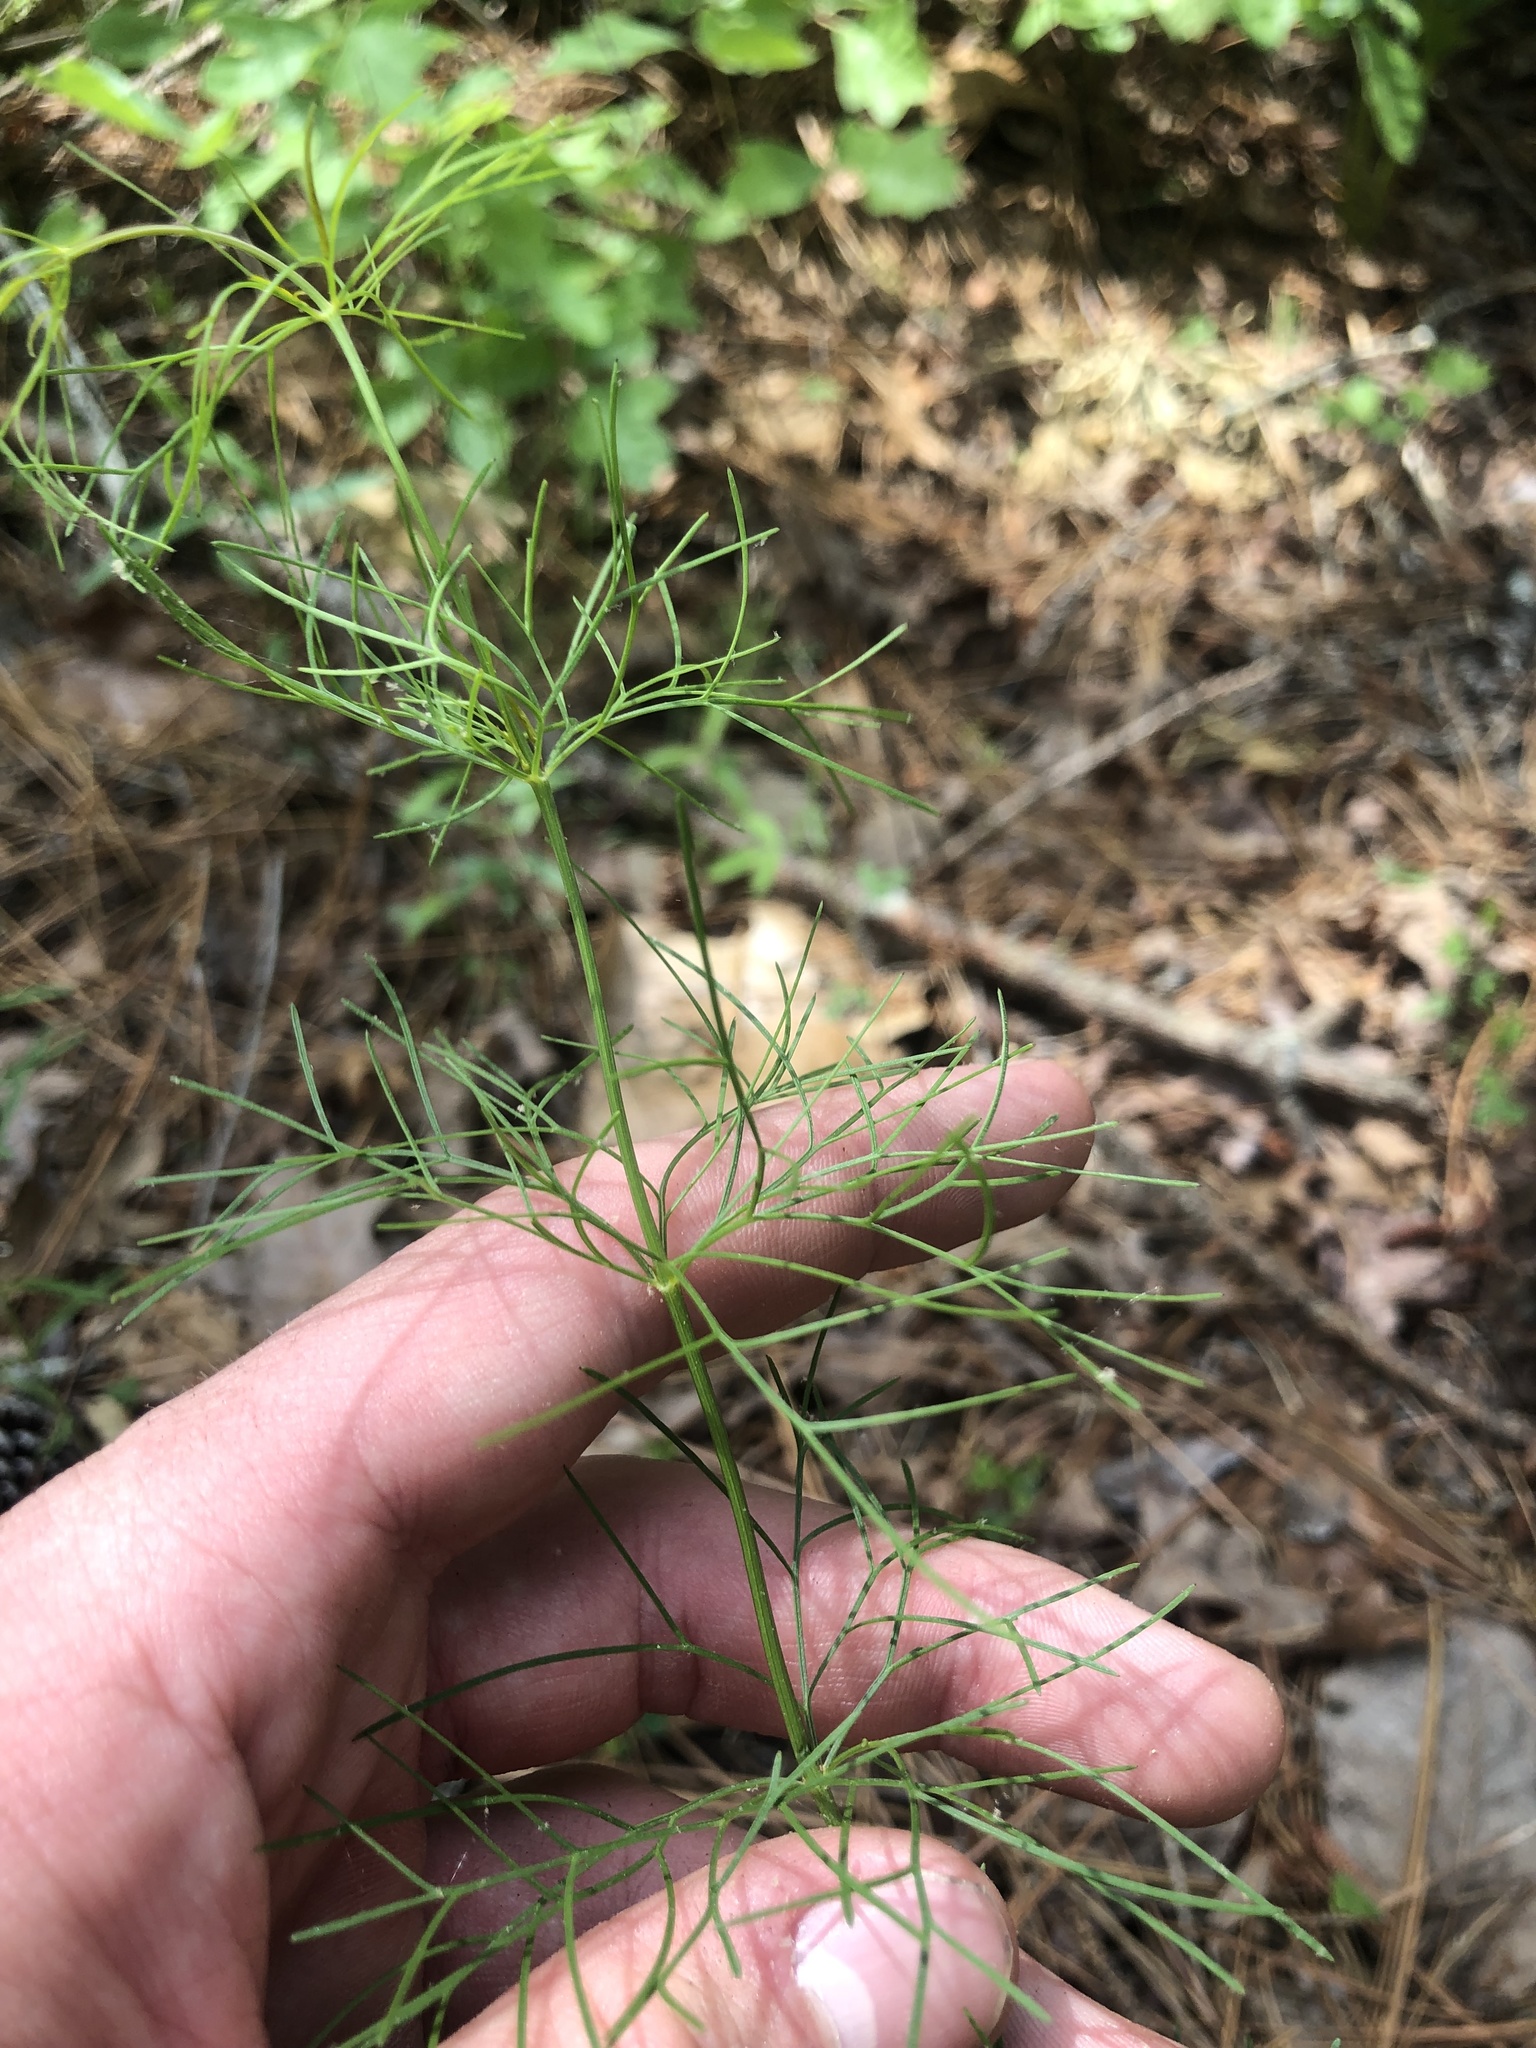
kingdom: Plantae
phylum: Tracheophyta
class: Magnoliopsida
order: Asterales
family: Asteraceae
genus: Coreopsis
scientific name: Coreopsis verticillata
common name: Whorled tickseed
